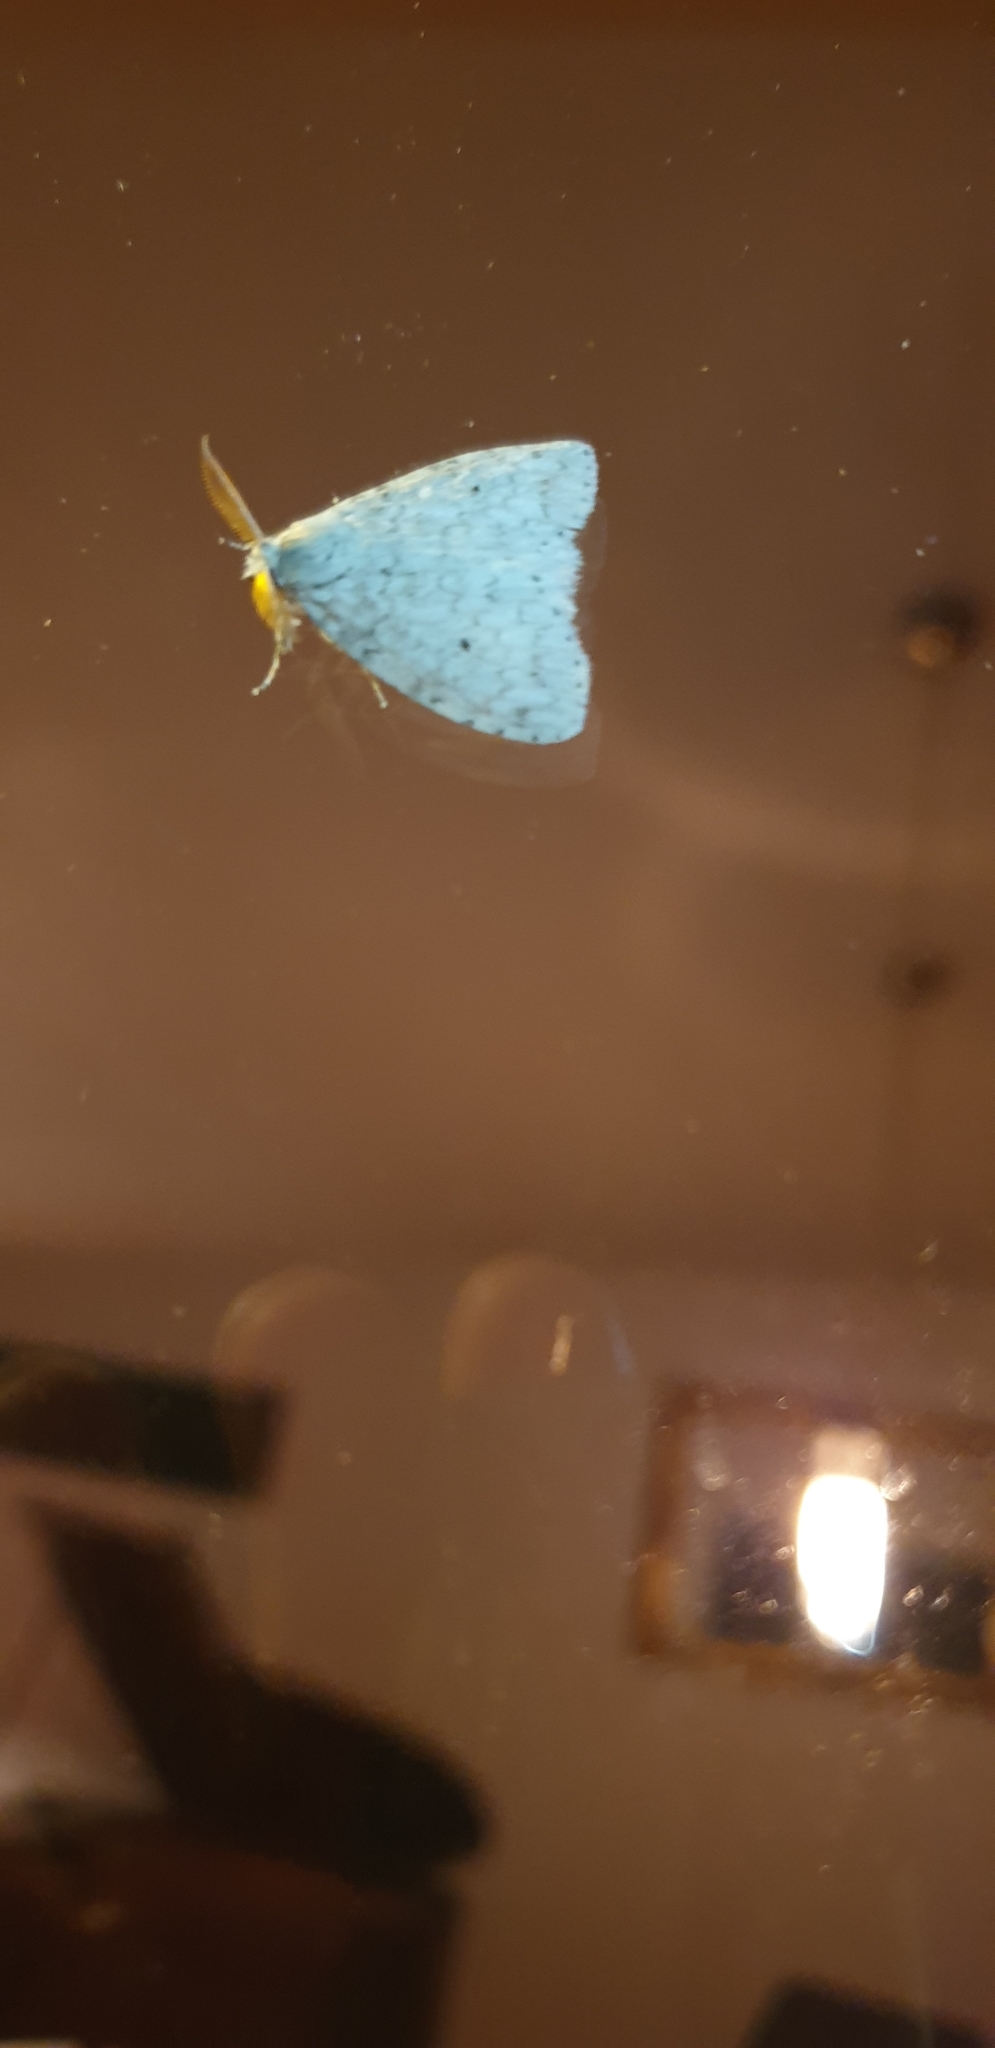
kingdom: Animalia
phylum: Arthropoda
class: Insecta
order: Lepidoptera
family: Erebidae
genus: Dura
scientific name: Dura ochrias
